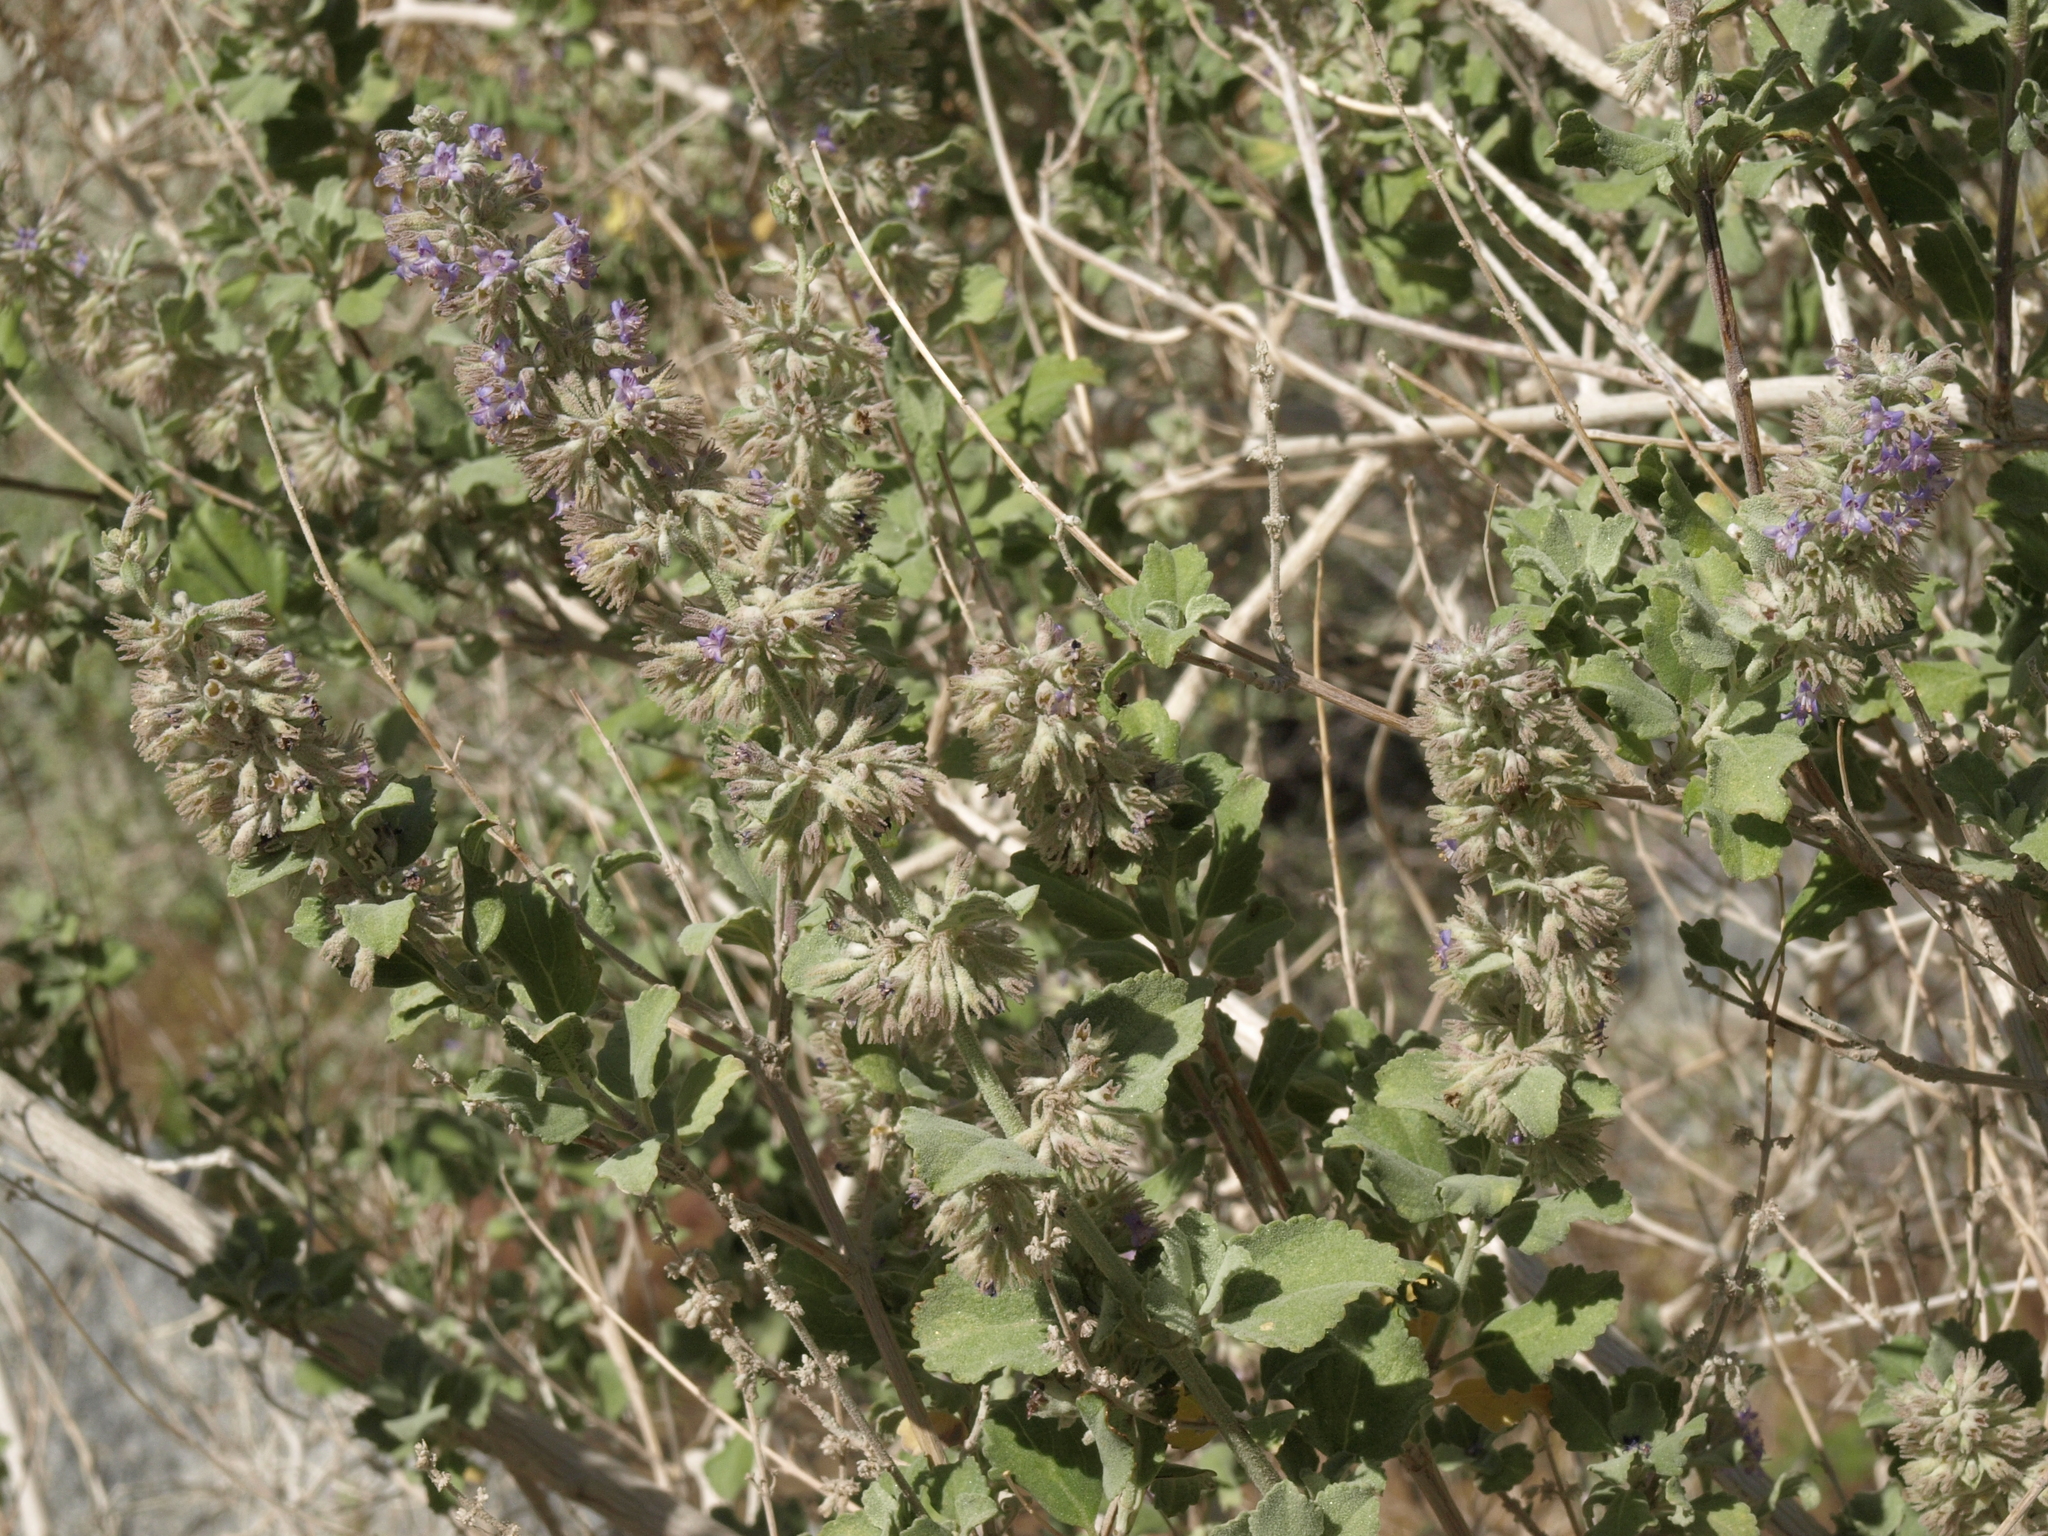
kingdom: Plantae
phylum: Tracheophyta
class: Magnoliopsida
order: Lamiales
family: Lamiaceae
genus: Condea
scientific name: Condea emoryi
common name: Chia
